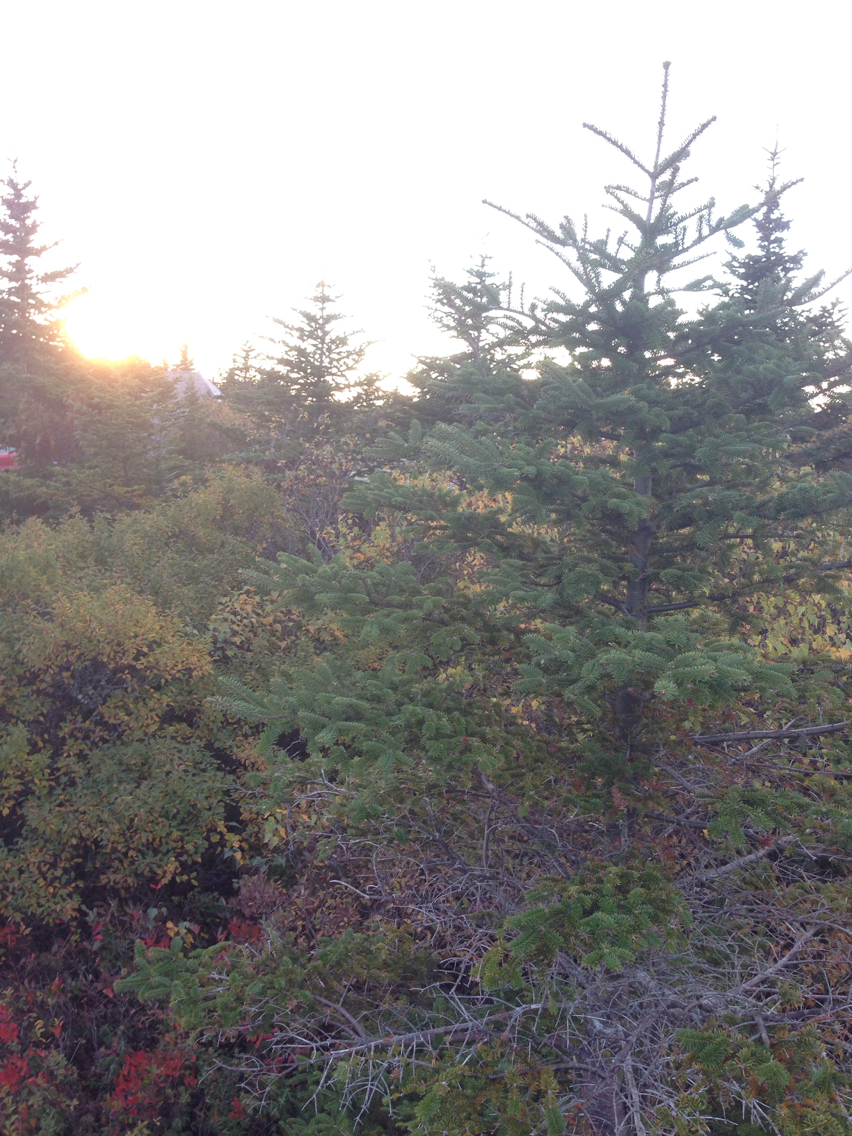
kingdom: Plantae
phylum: Tracheophyta
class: Pinopsida
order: Pinales
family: Pinaceae
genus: Abies
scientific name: Abies balsamea
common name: Balsam fir
